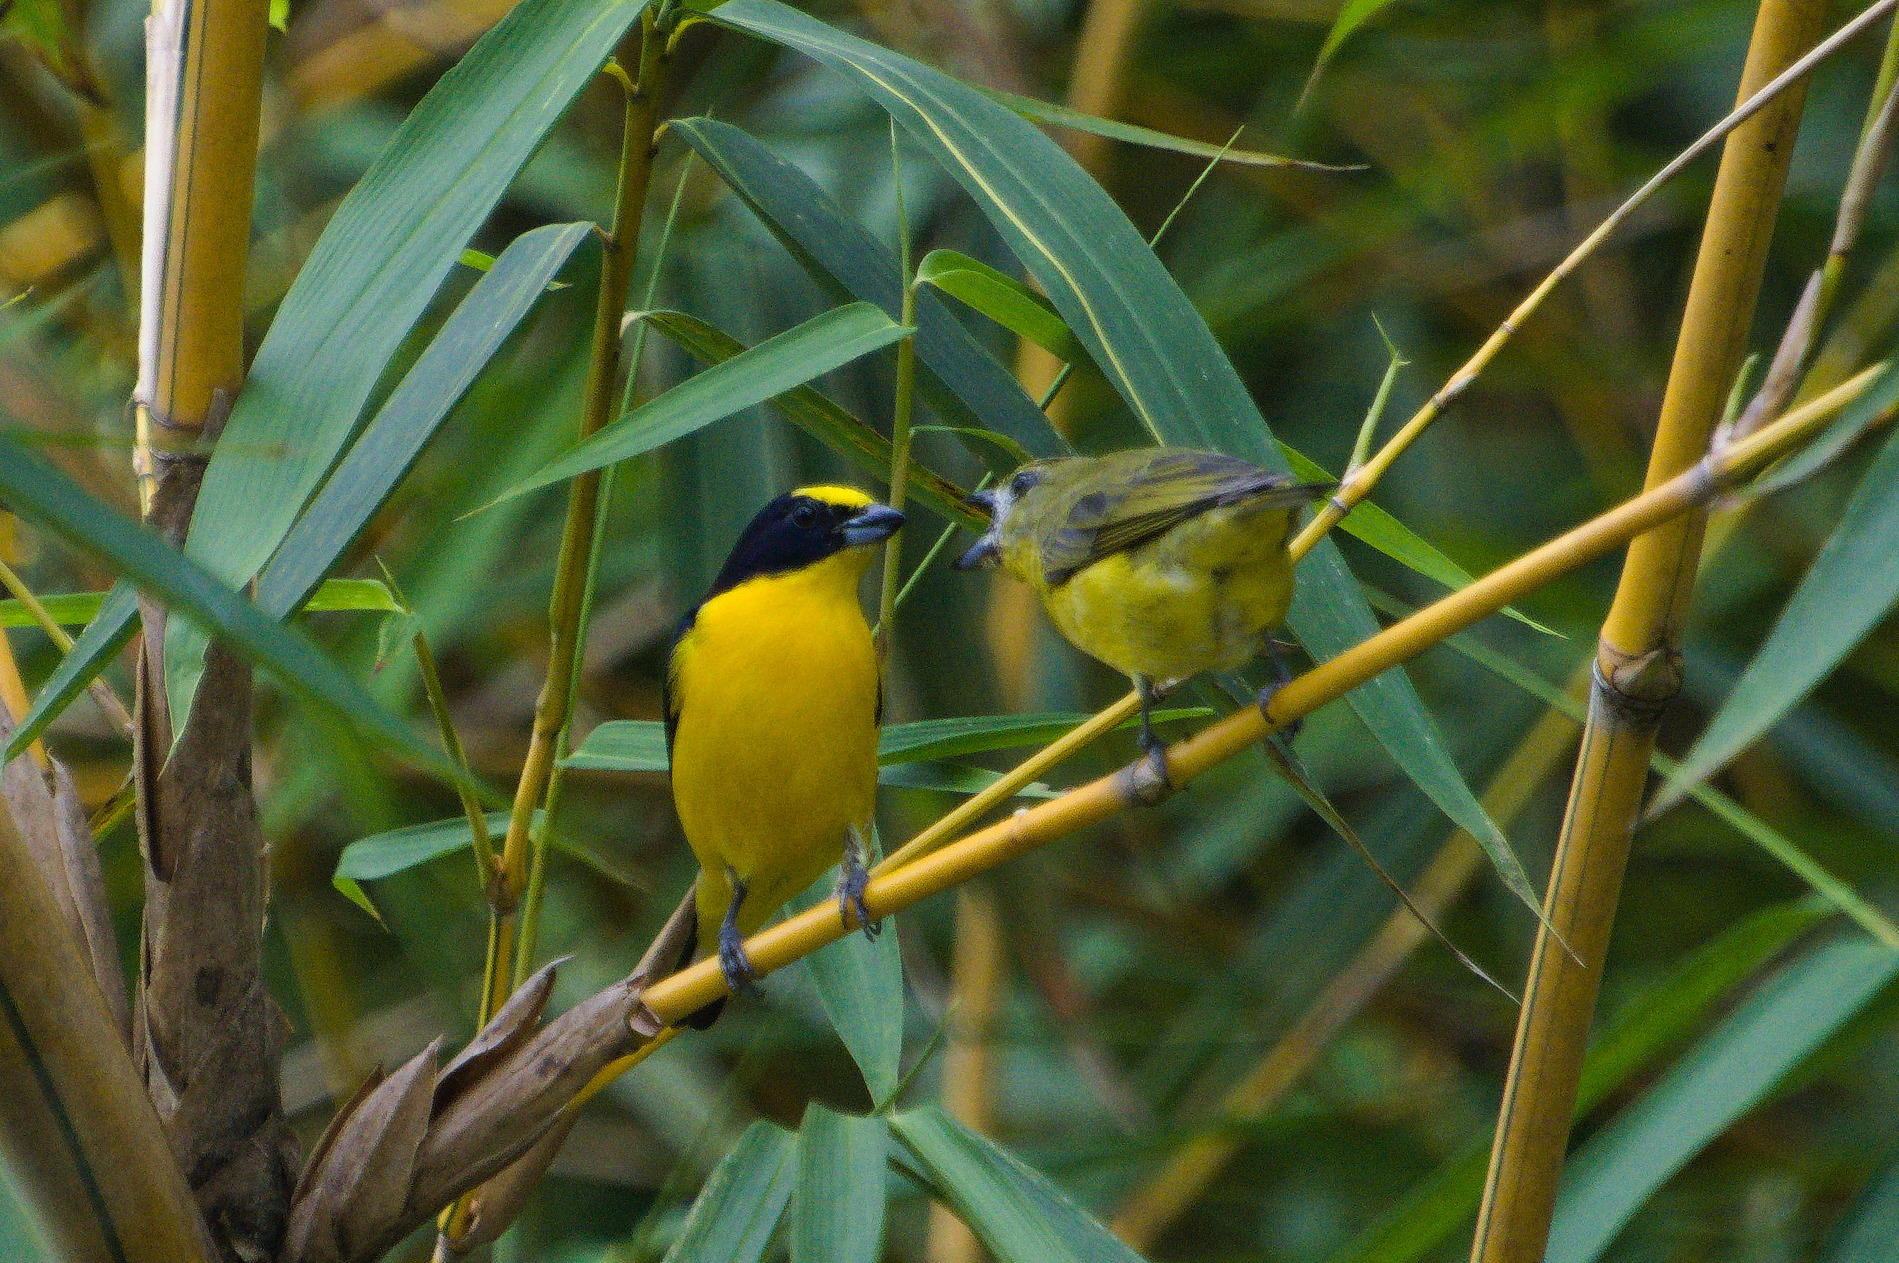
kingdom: Animalia
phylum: Chordata
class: Aves
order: Passeriformes
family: Fringillidae
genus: Euphonia
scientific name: Euphonia laniirostris
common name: Thick-billed euphonia
